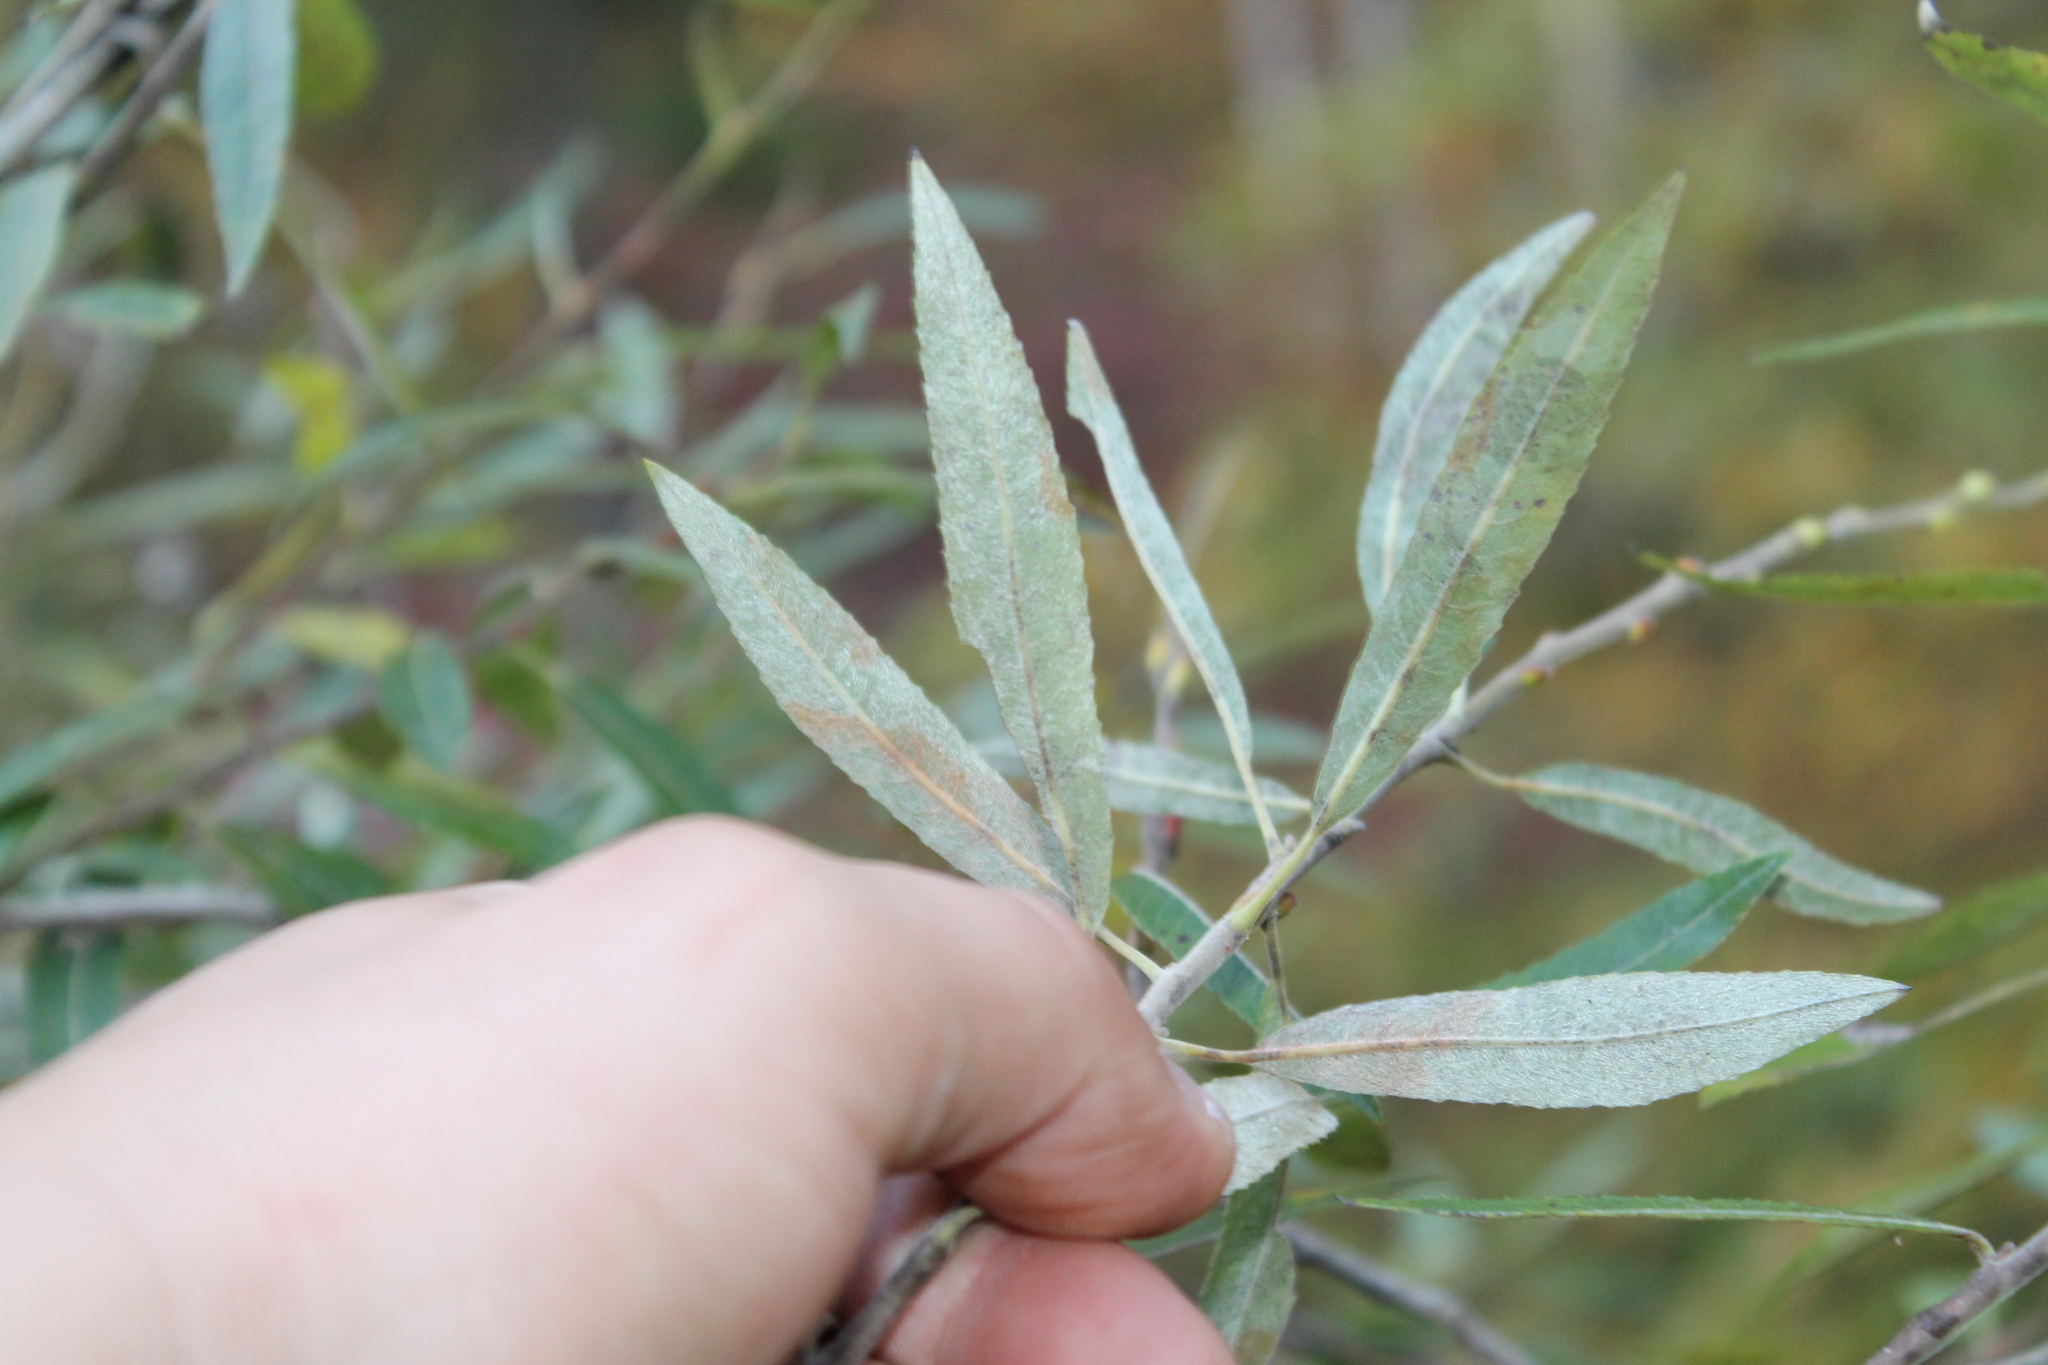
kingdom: Plantae
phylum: Tracheophyta
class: Magnoliopsida
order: Malpighiales
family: Salicaceae
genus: Salix
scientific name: Salix sericea
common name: Silky willow
